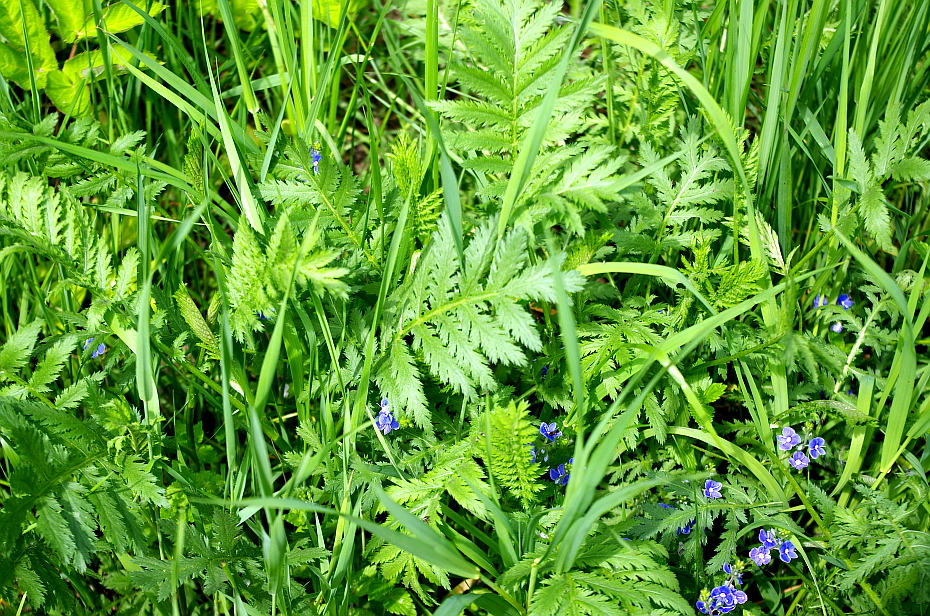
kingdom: Plantae
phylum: Tracheophyta
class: Magnoliopsida
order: Asterales
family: Asteraceae
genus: Tanacetum
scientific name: Tanacetum vulgare
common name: Common tansy
